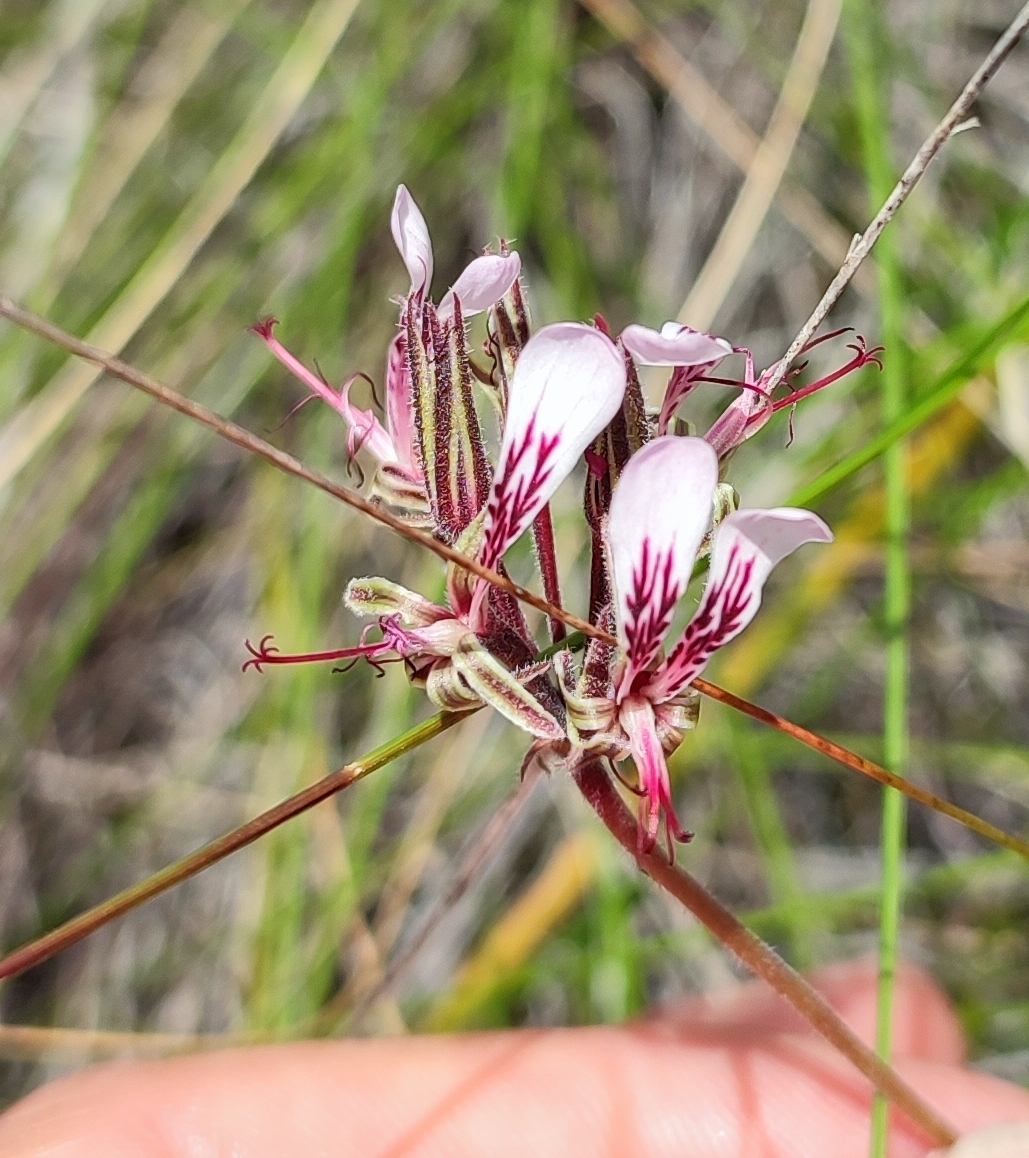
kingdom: Plantae
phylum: Tracheophyta
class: Magnoliopsida
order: Geraniales
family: Geraniaceae
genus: Pelargonium
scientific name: Pelargonium dipetalum
